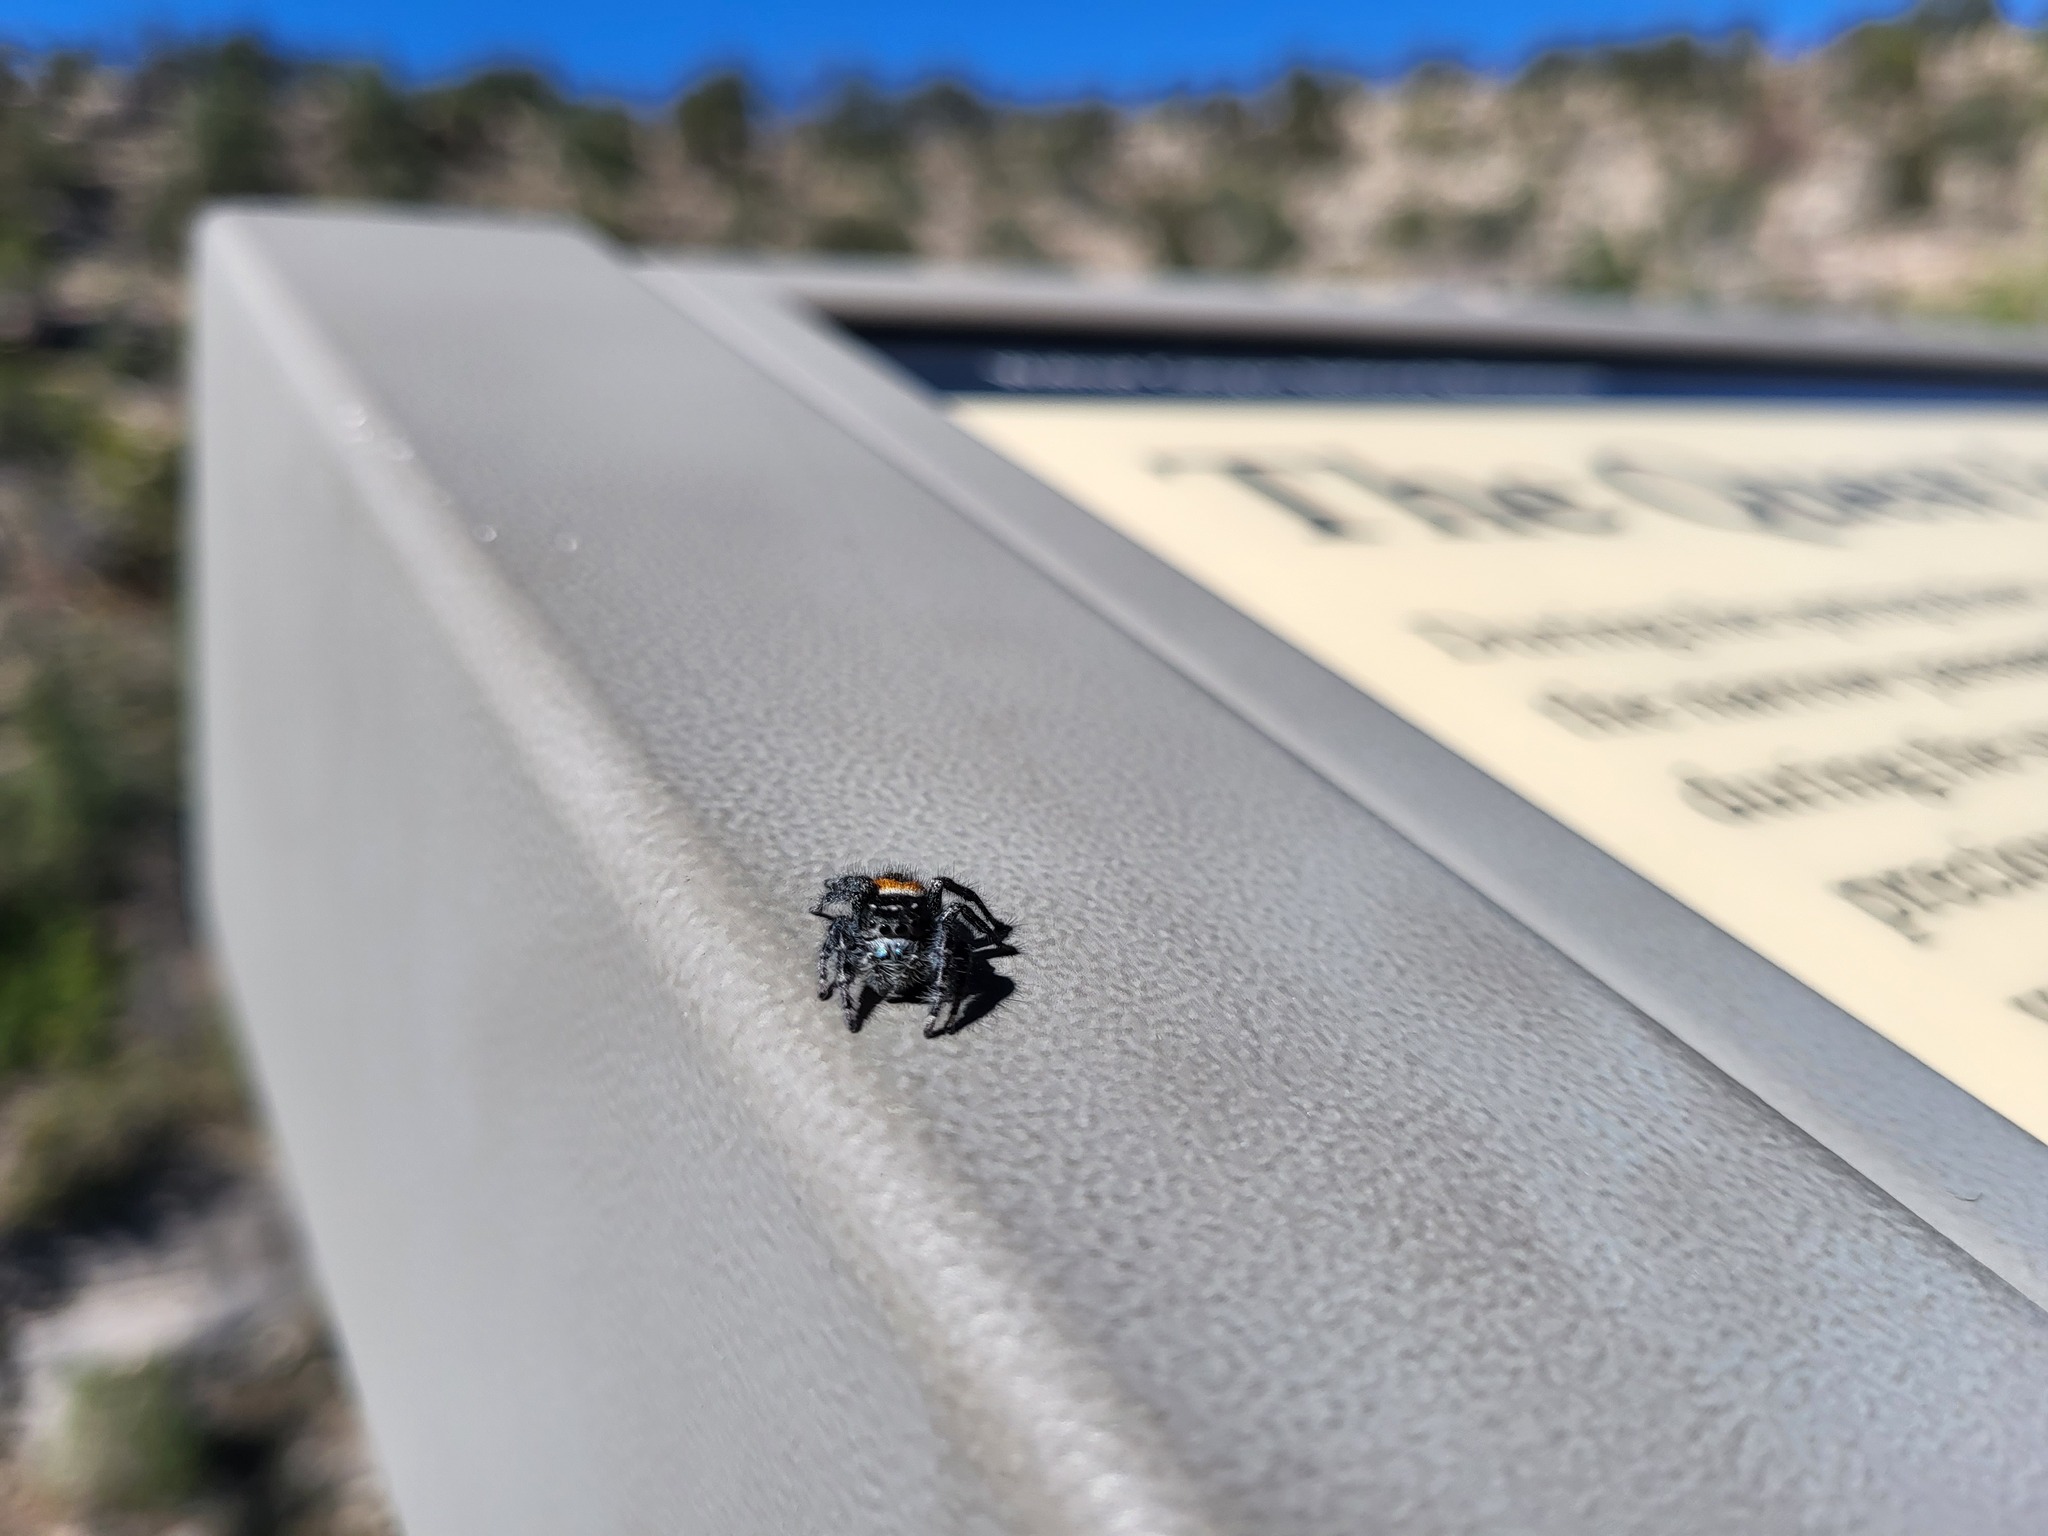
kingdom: Animalia
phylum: Arthropoda
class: Arachnida
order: Araneae
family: Salticidae
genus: Phidippus
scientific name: Phidippus carneus
